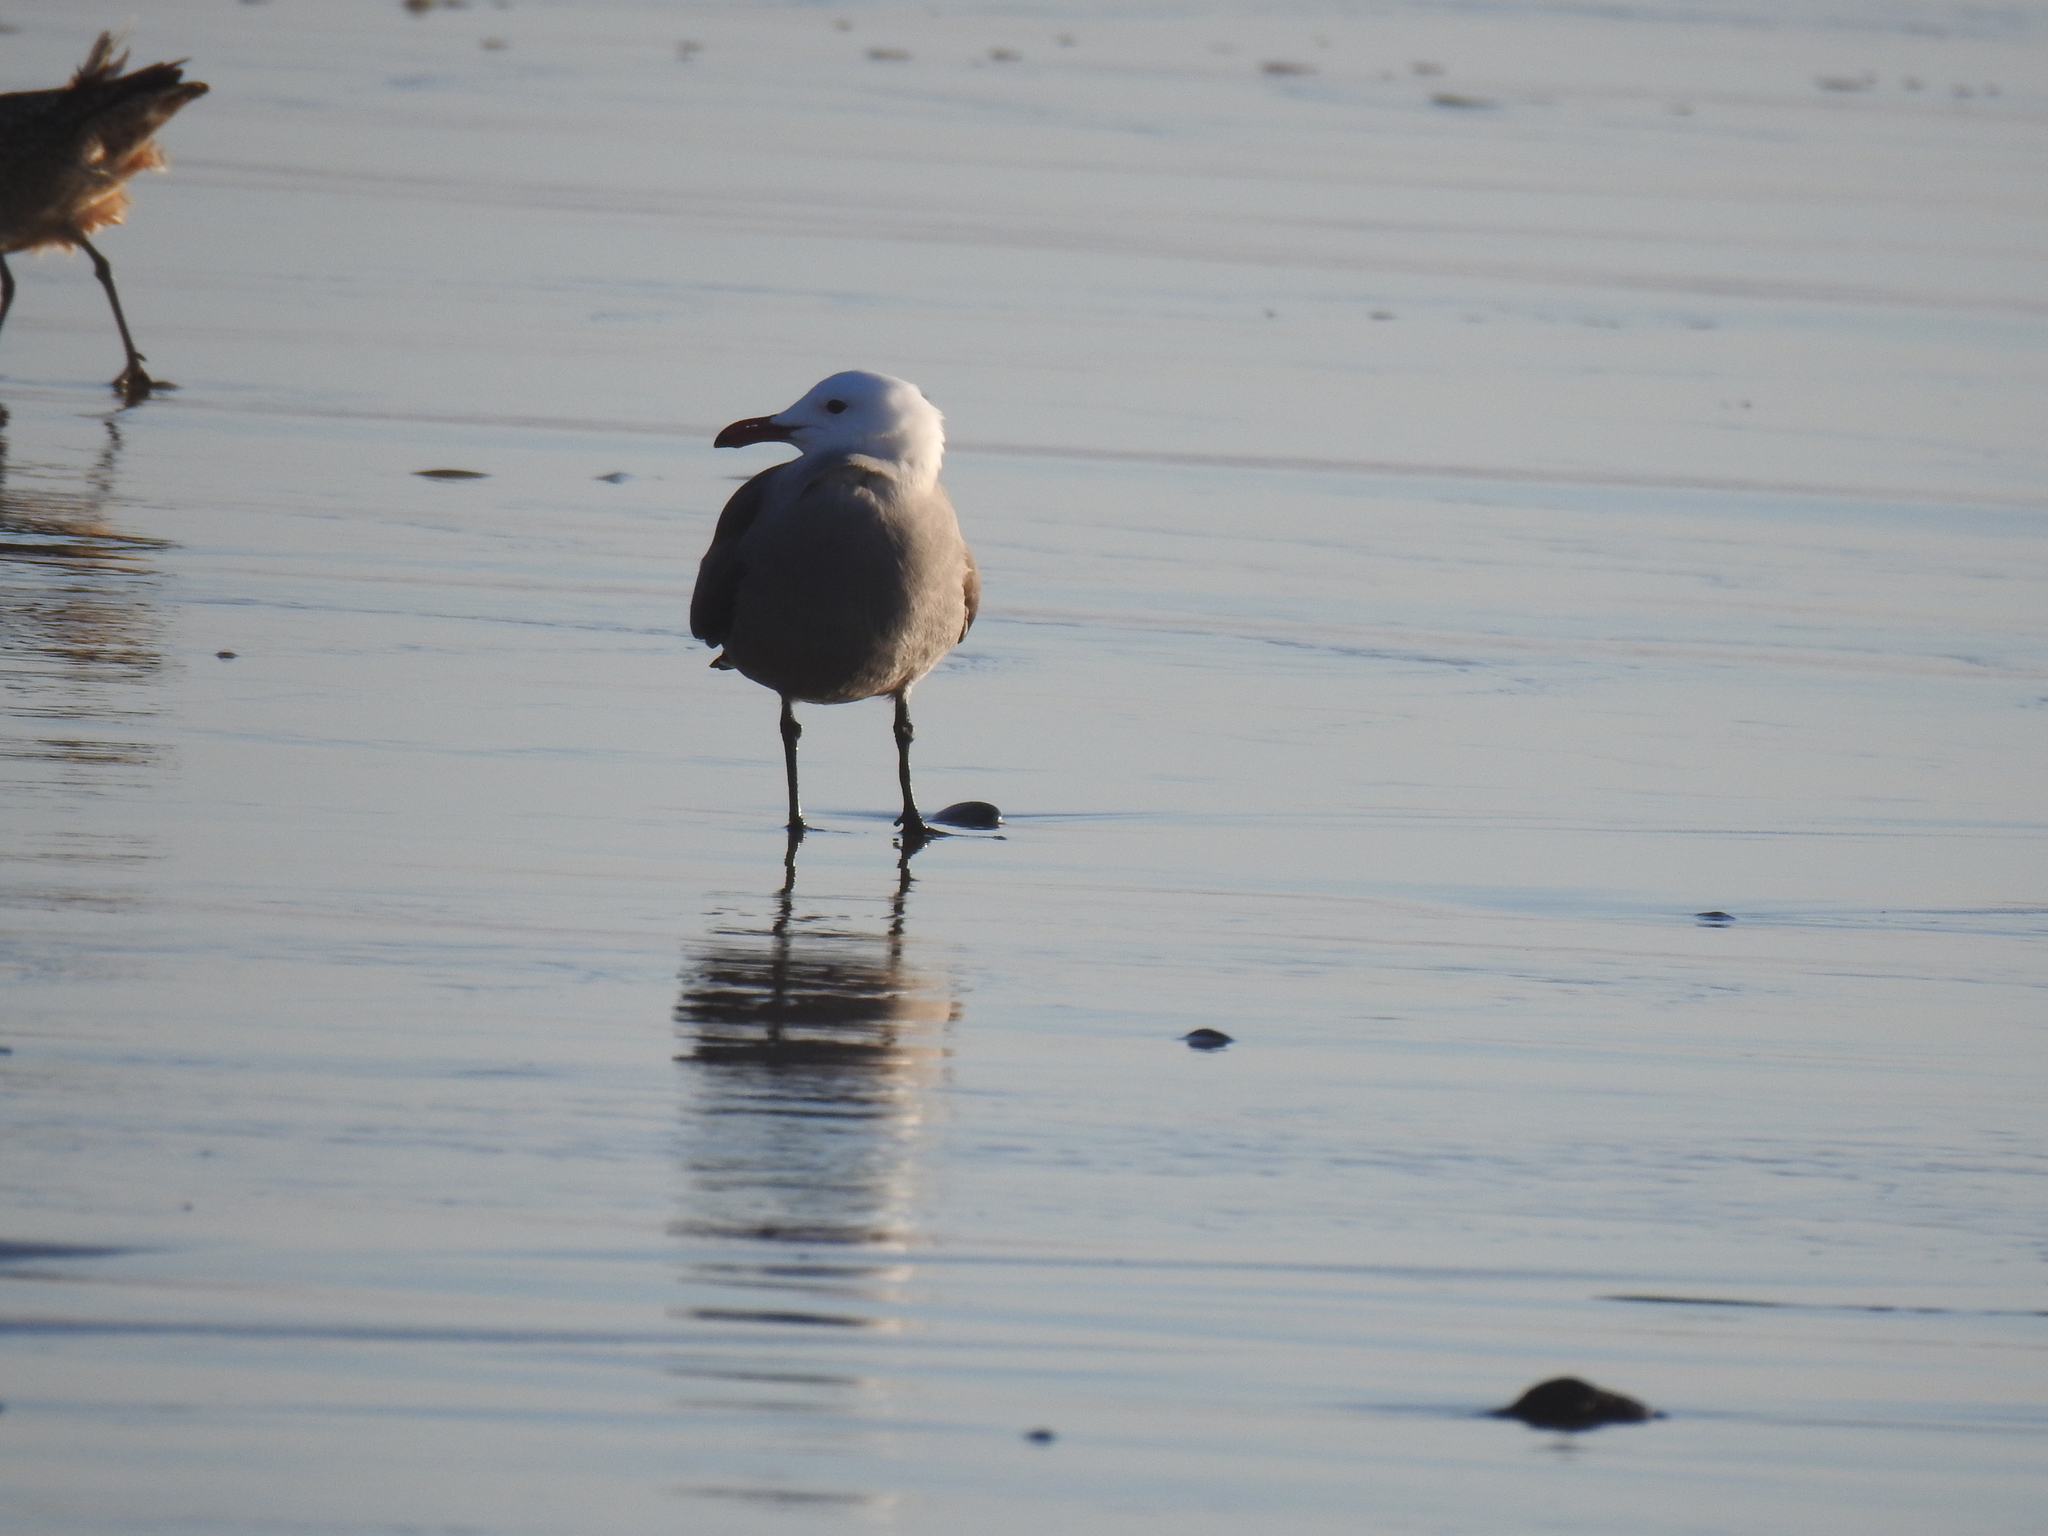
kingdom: Animalia
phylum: Chordata
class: Aves
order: Charadriiformes
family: Laridae
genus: Larus
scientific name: Larus heermanni
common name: Heermann's gull
